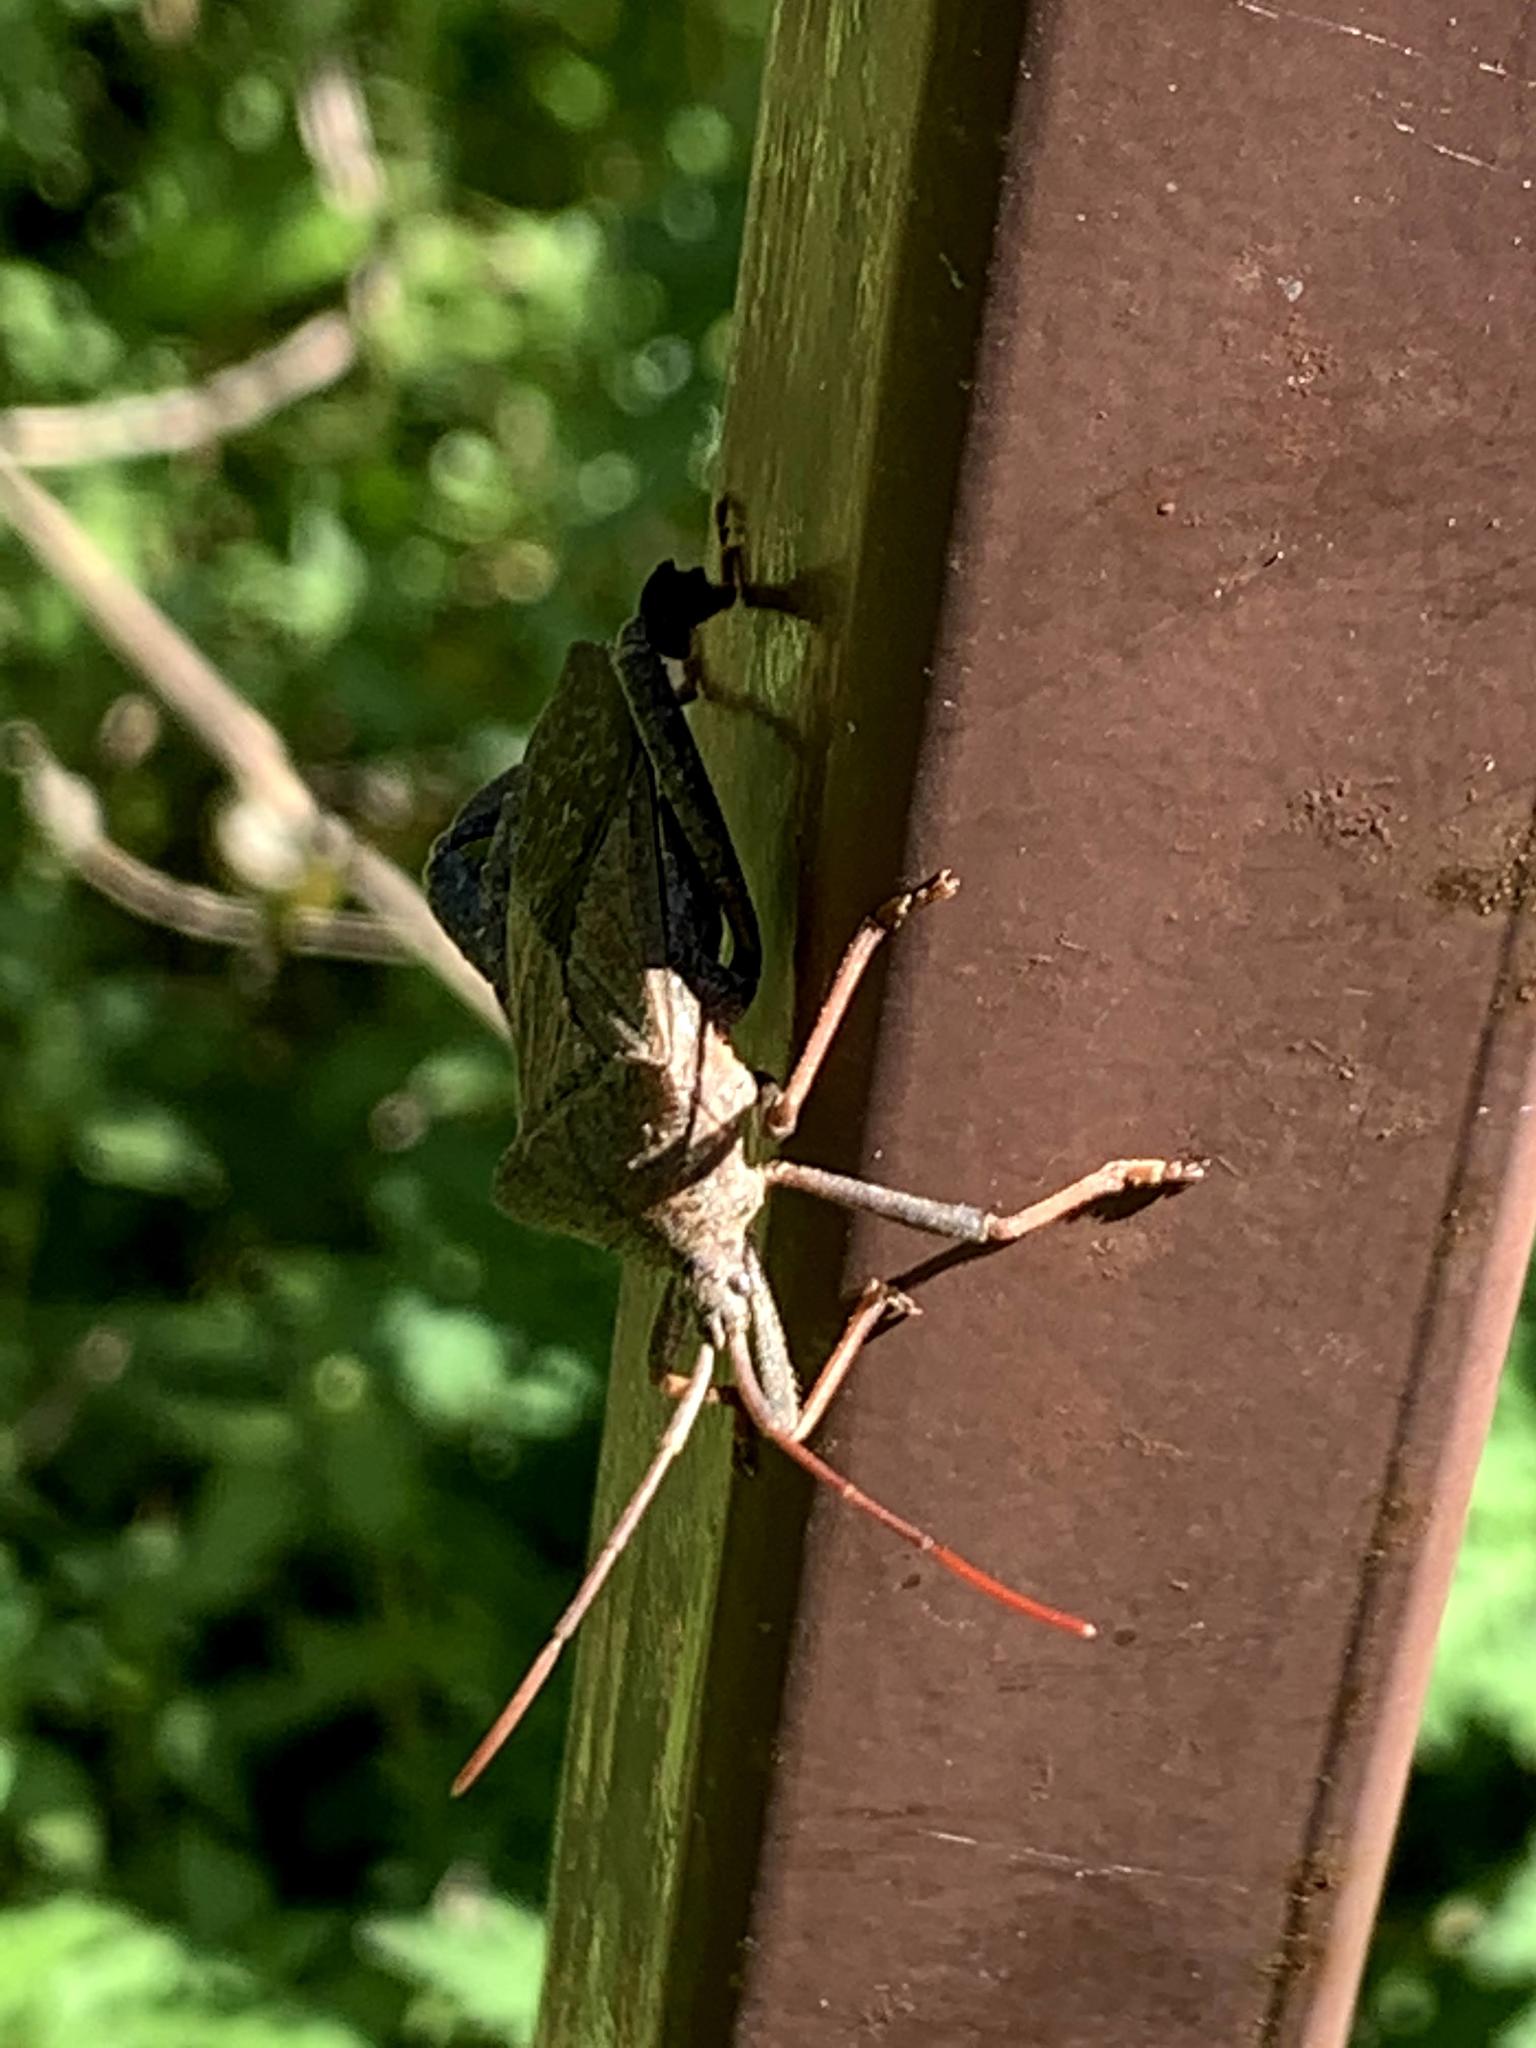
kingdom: Animalia
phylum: Arthropoda
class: Insecta
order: Hemiptera
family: Coreidae
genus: Acanthocephala
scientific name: Acanthocephala femorata
